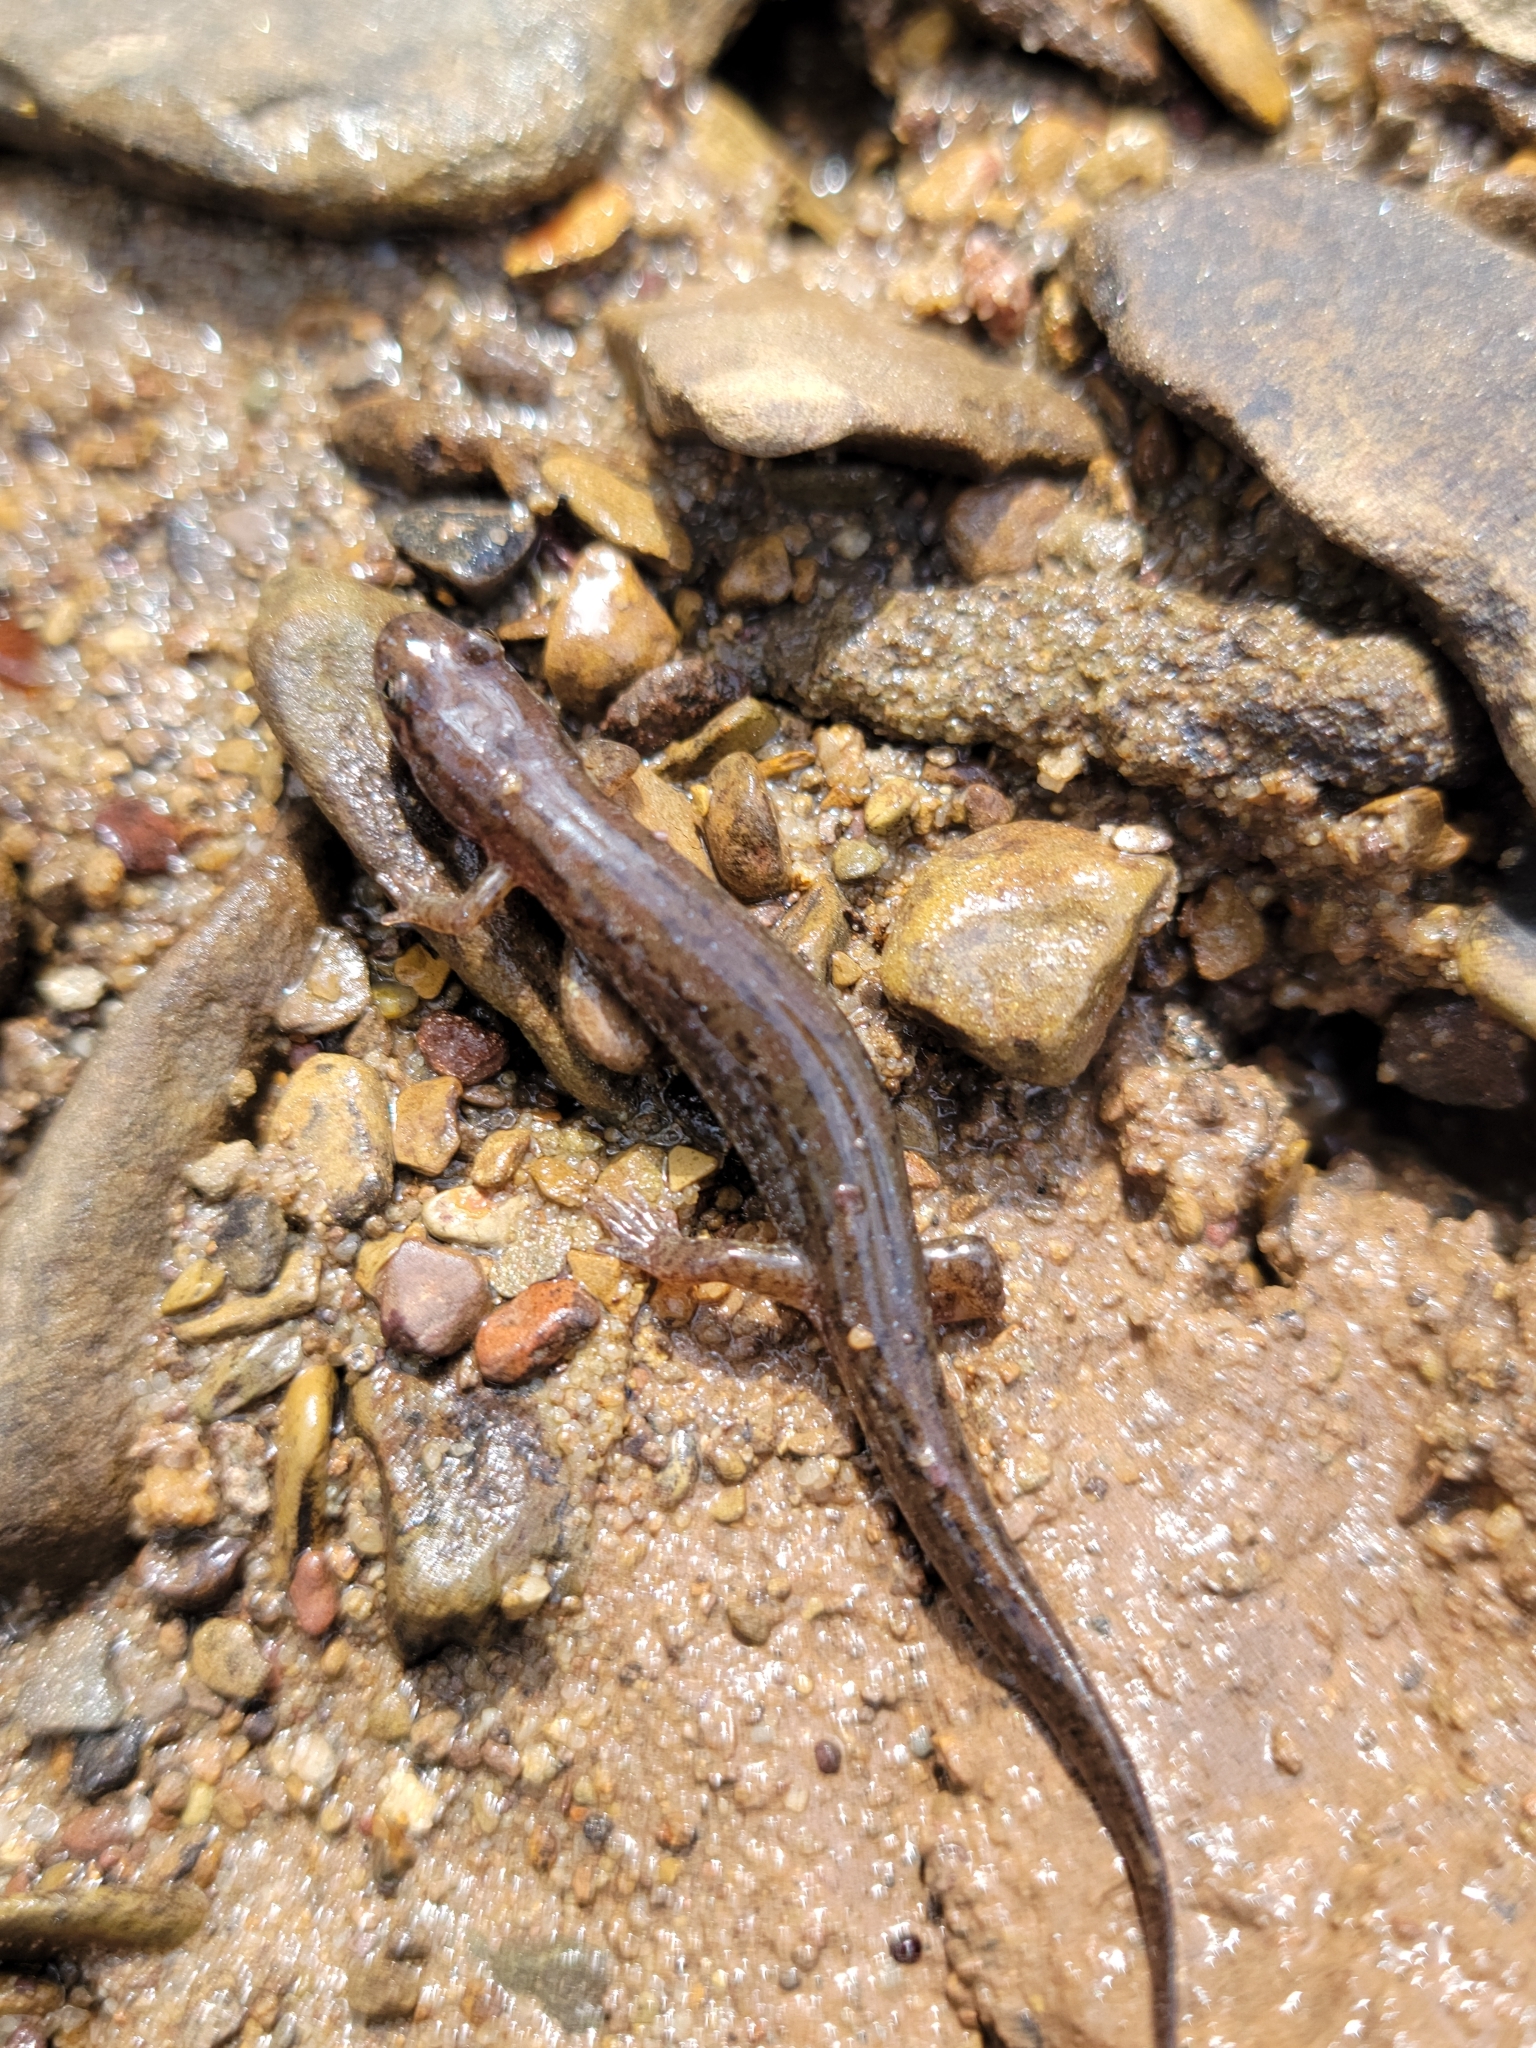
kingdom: Animalia
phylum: Chordata
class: Amphibia
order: Caudata
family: Plethodontidae
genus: Desmognathus
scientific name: Desmognathus fuscus
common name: Northern dusky salamander
